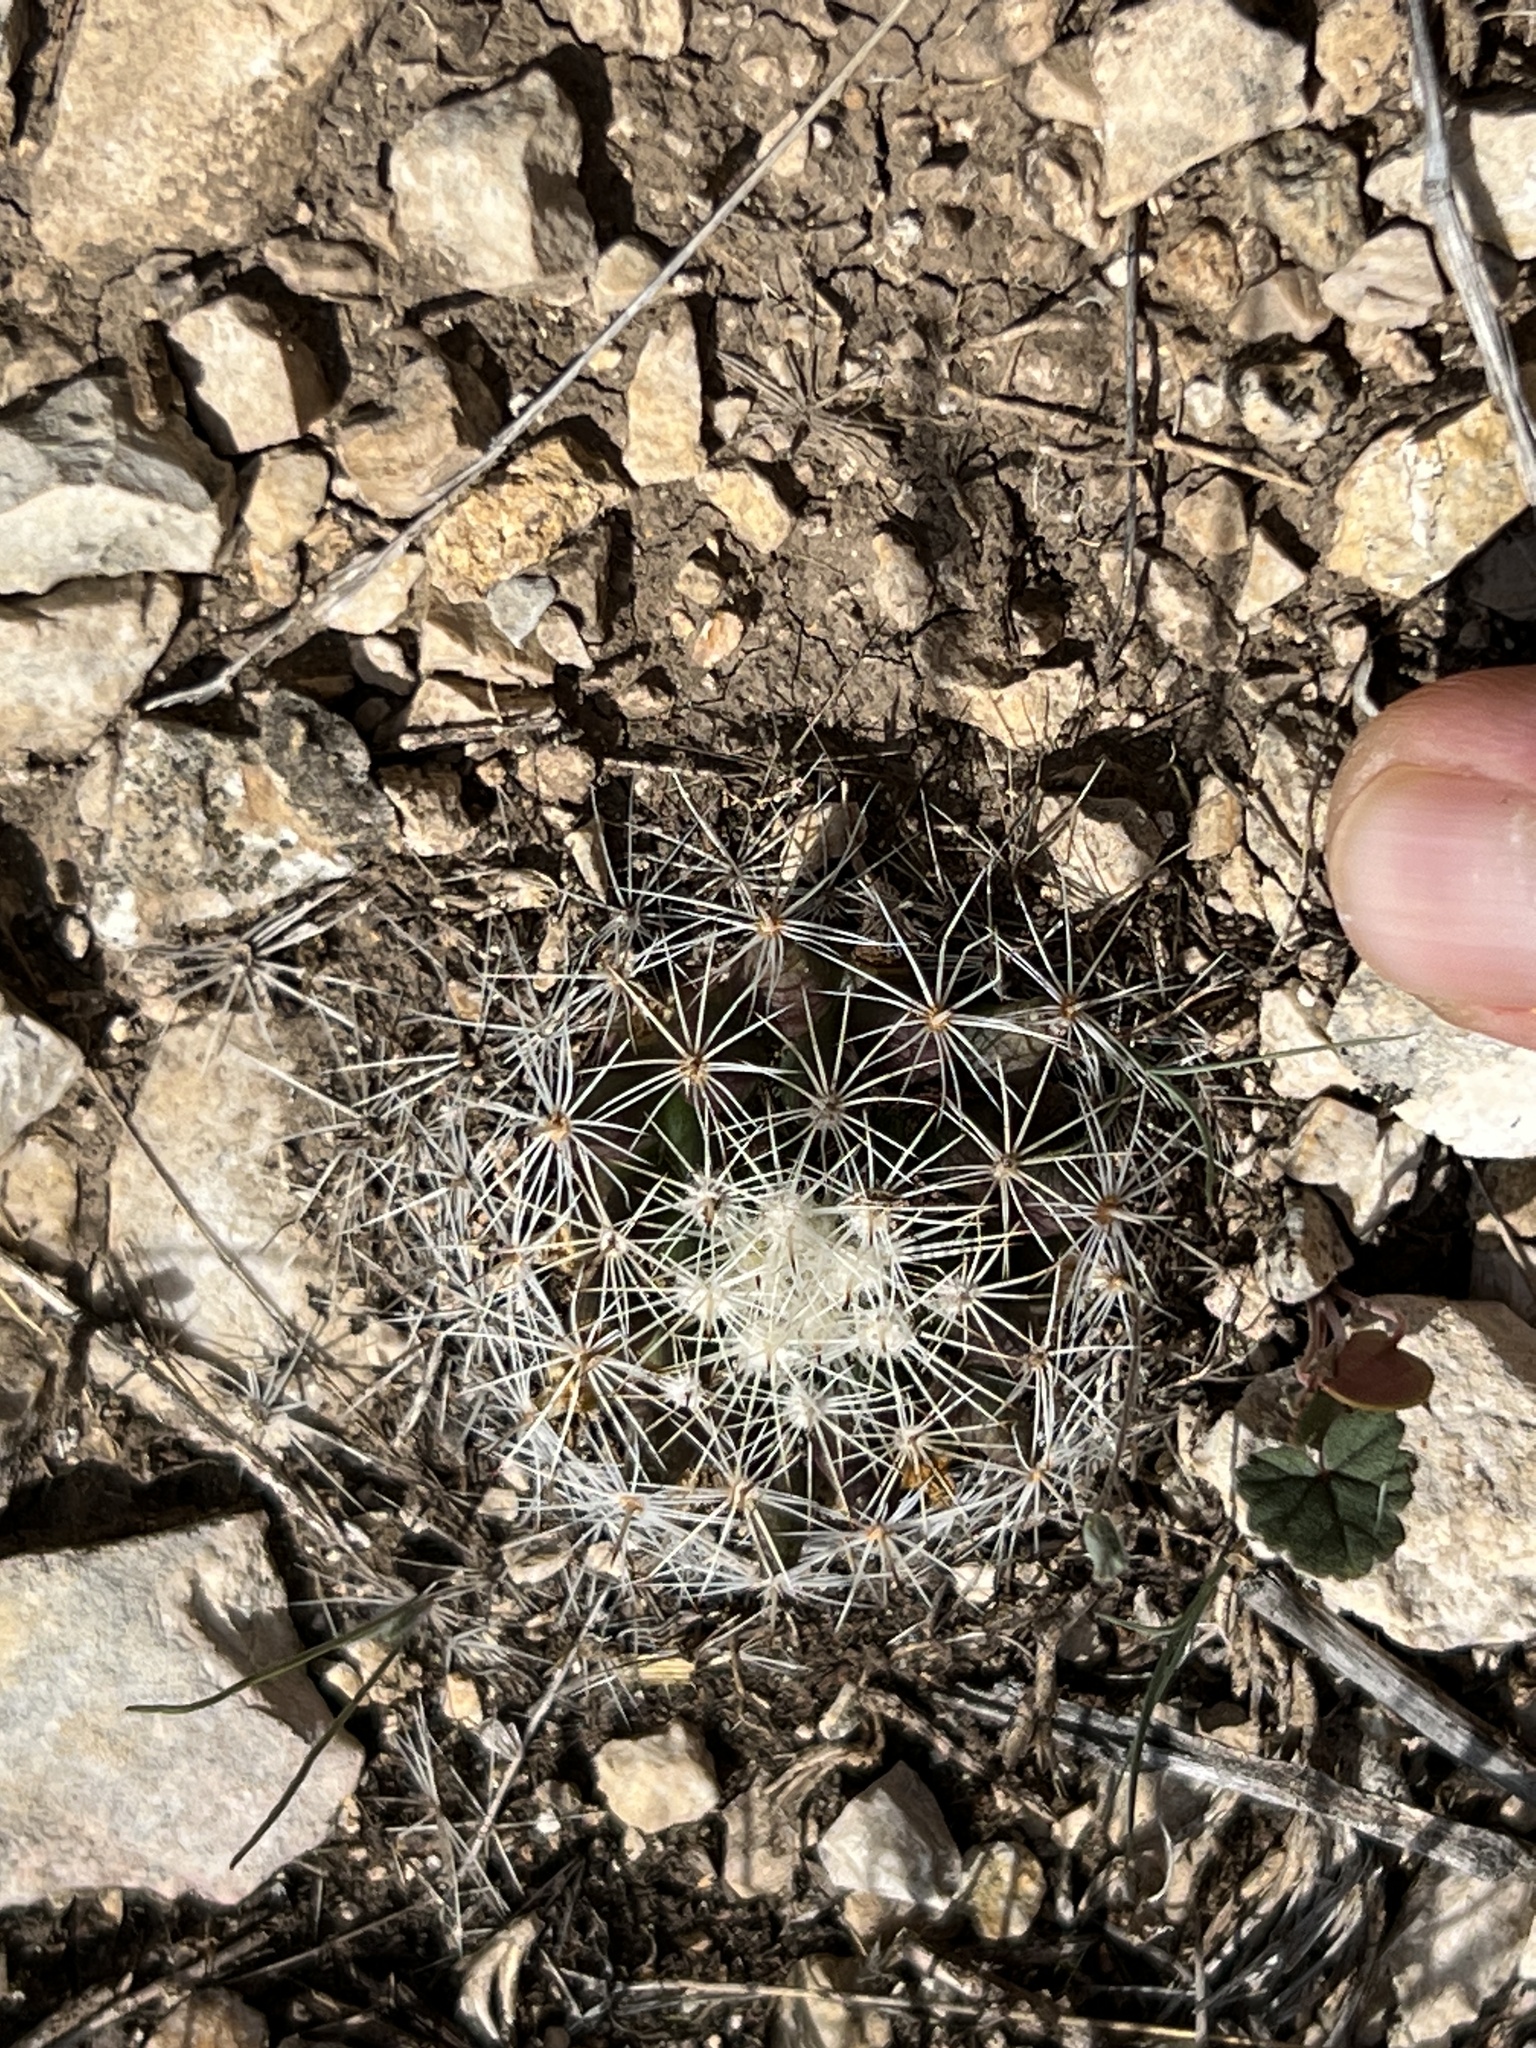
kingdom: Plantae
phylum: Tracheophyta
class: Magnoliopsida
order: Caryophyllales
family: Cactaceae
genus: Mammillaria
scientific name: Mammillaria heyderi
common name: Little nipple cactus
